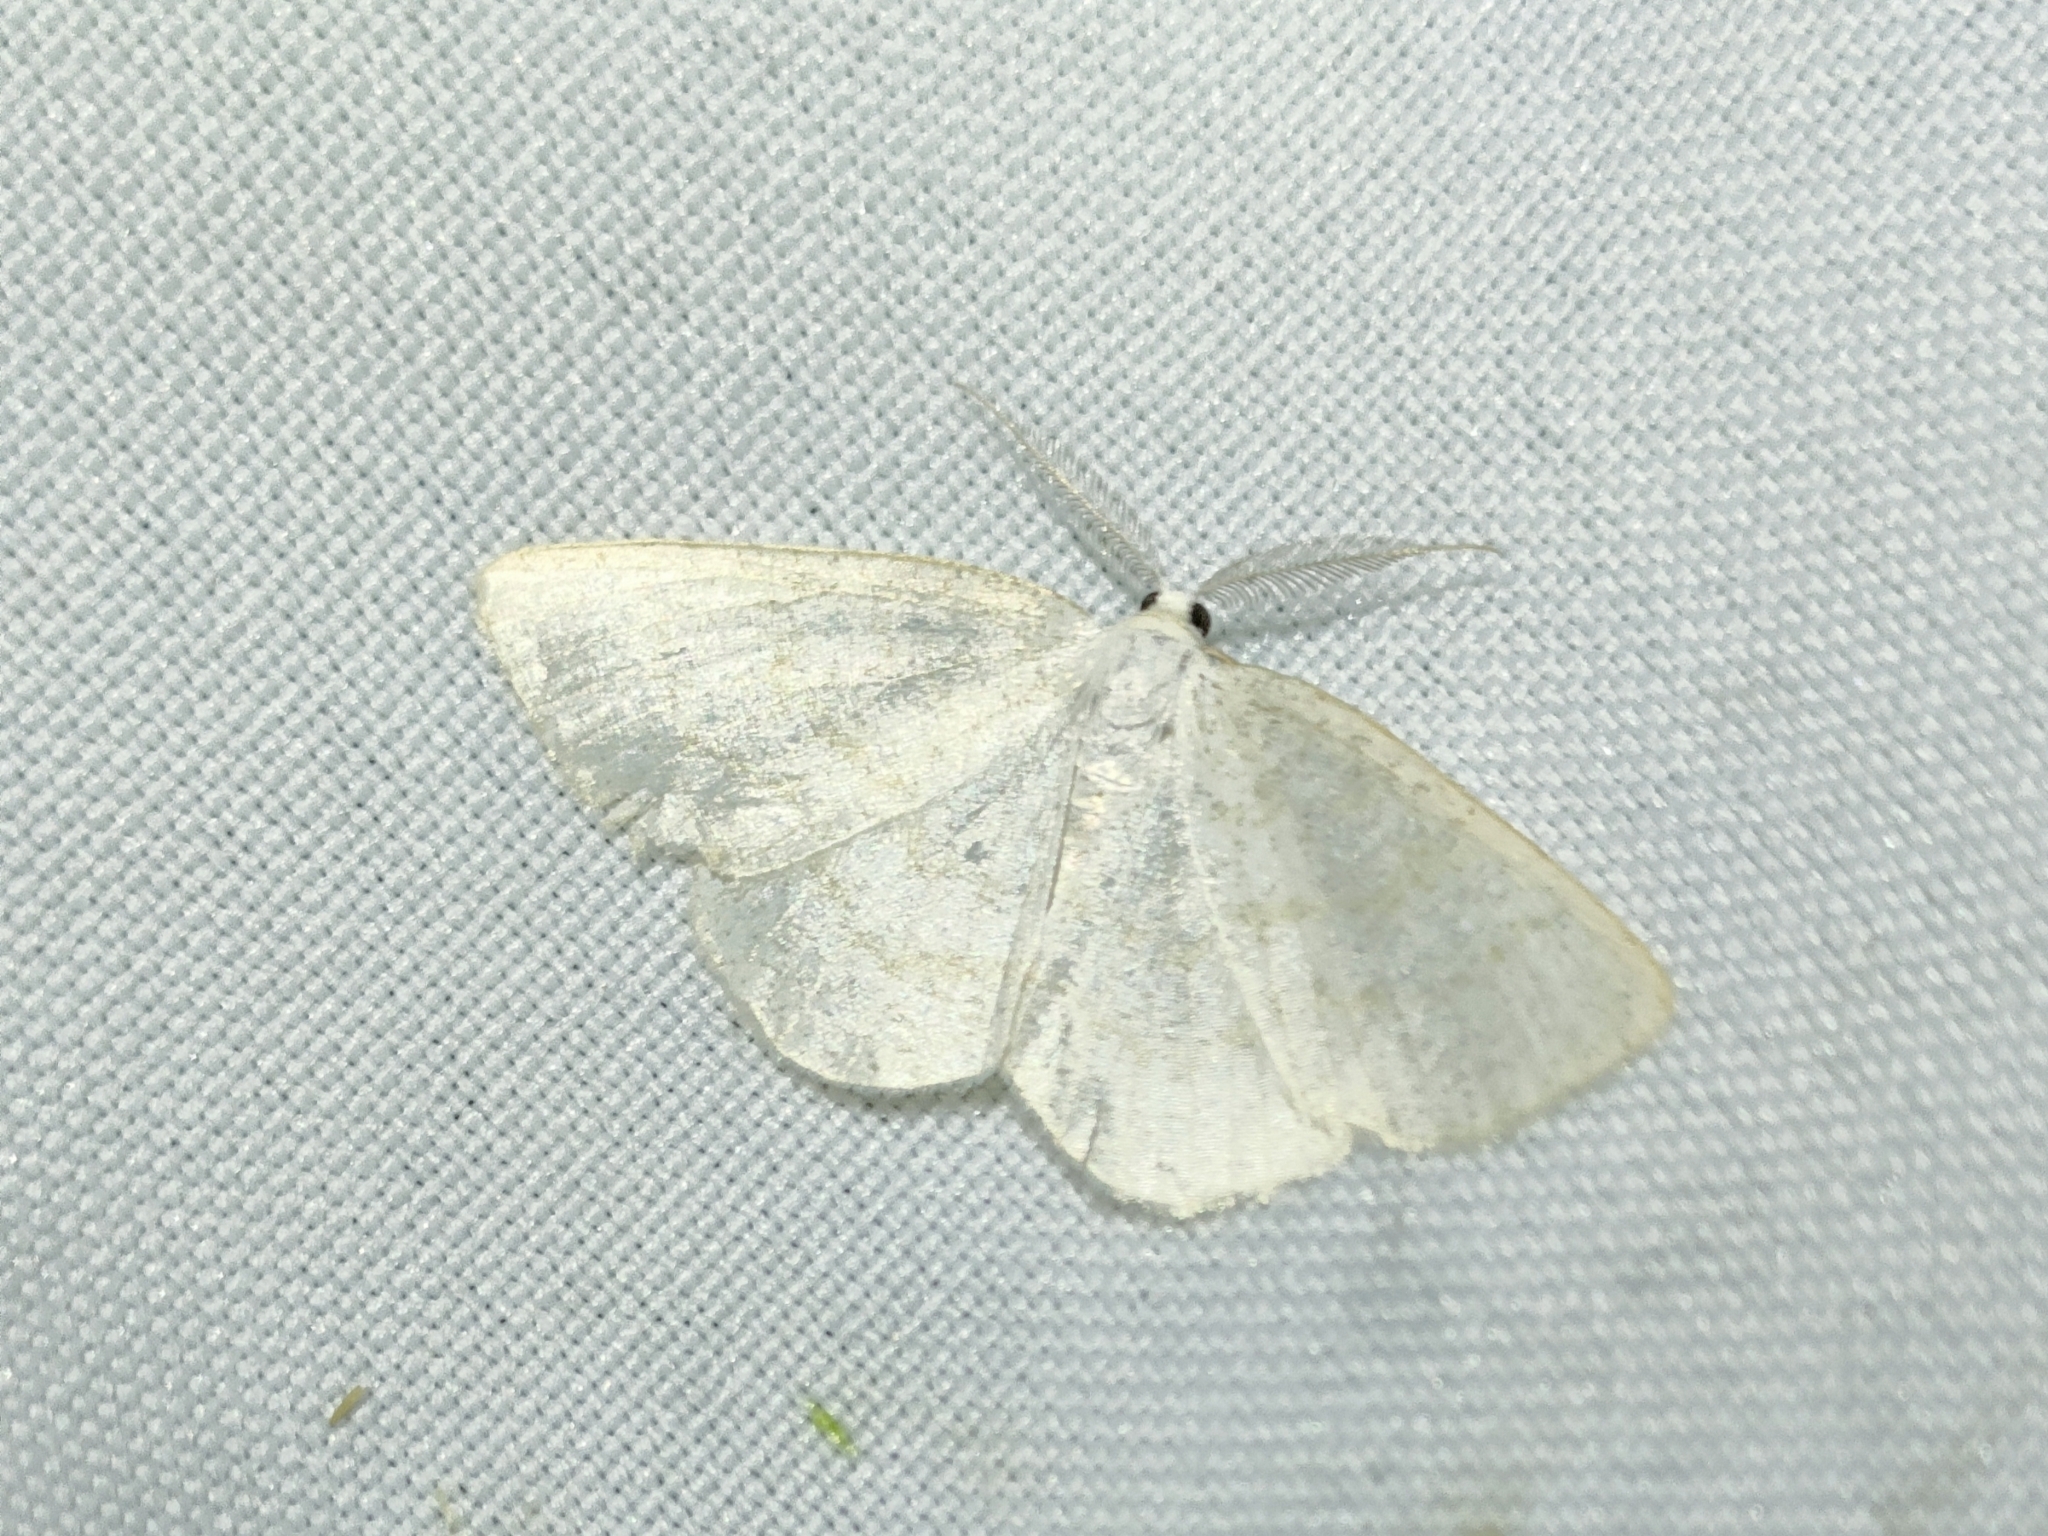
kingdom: Animalia
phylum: Arthropoda
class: Insecta
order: Lepidoptera
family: Geometridae
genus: Cabera
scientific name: Cabera exanthemata
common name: Common wave
